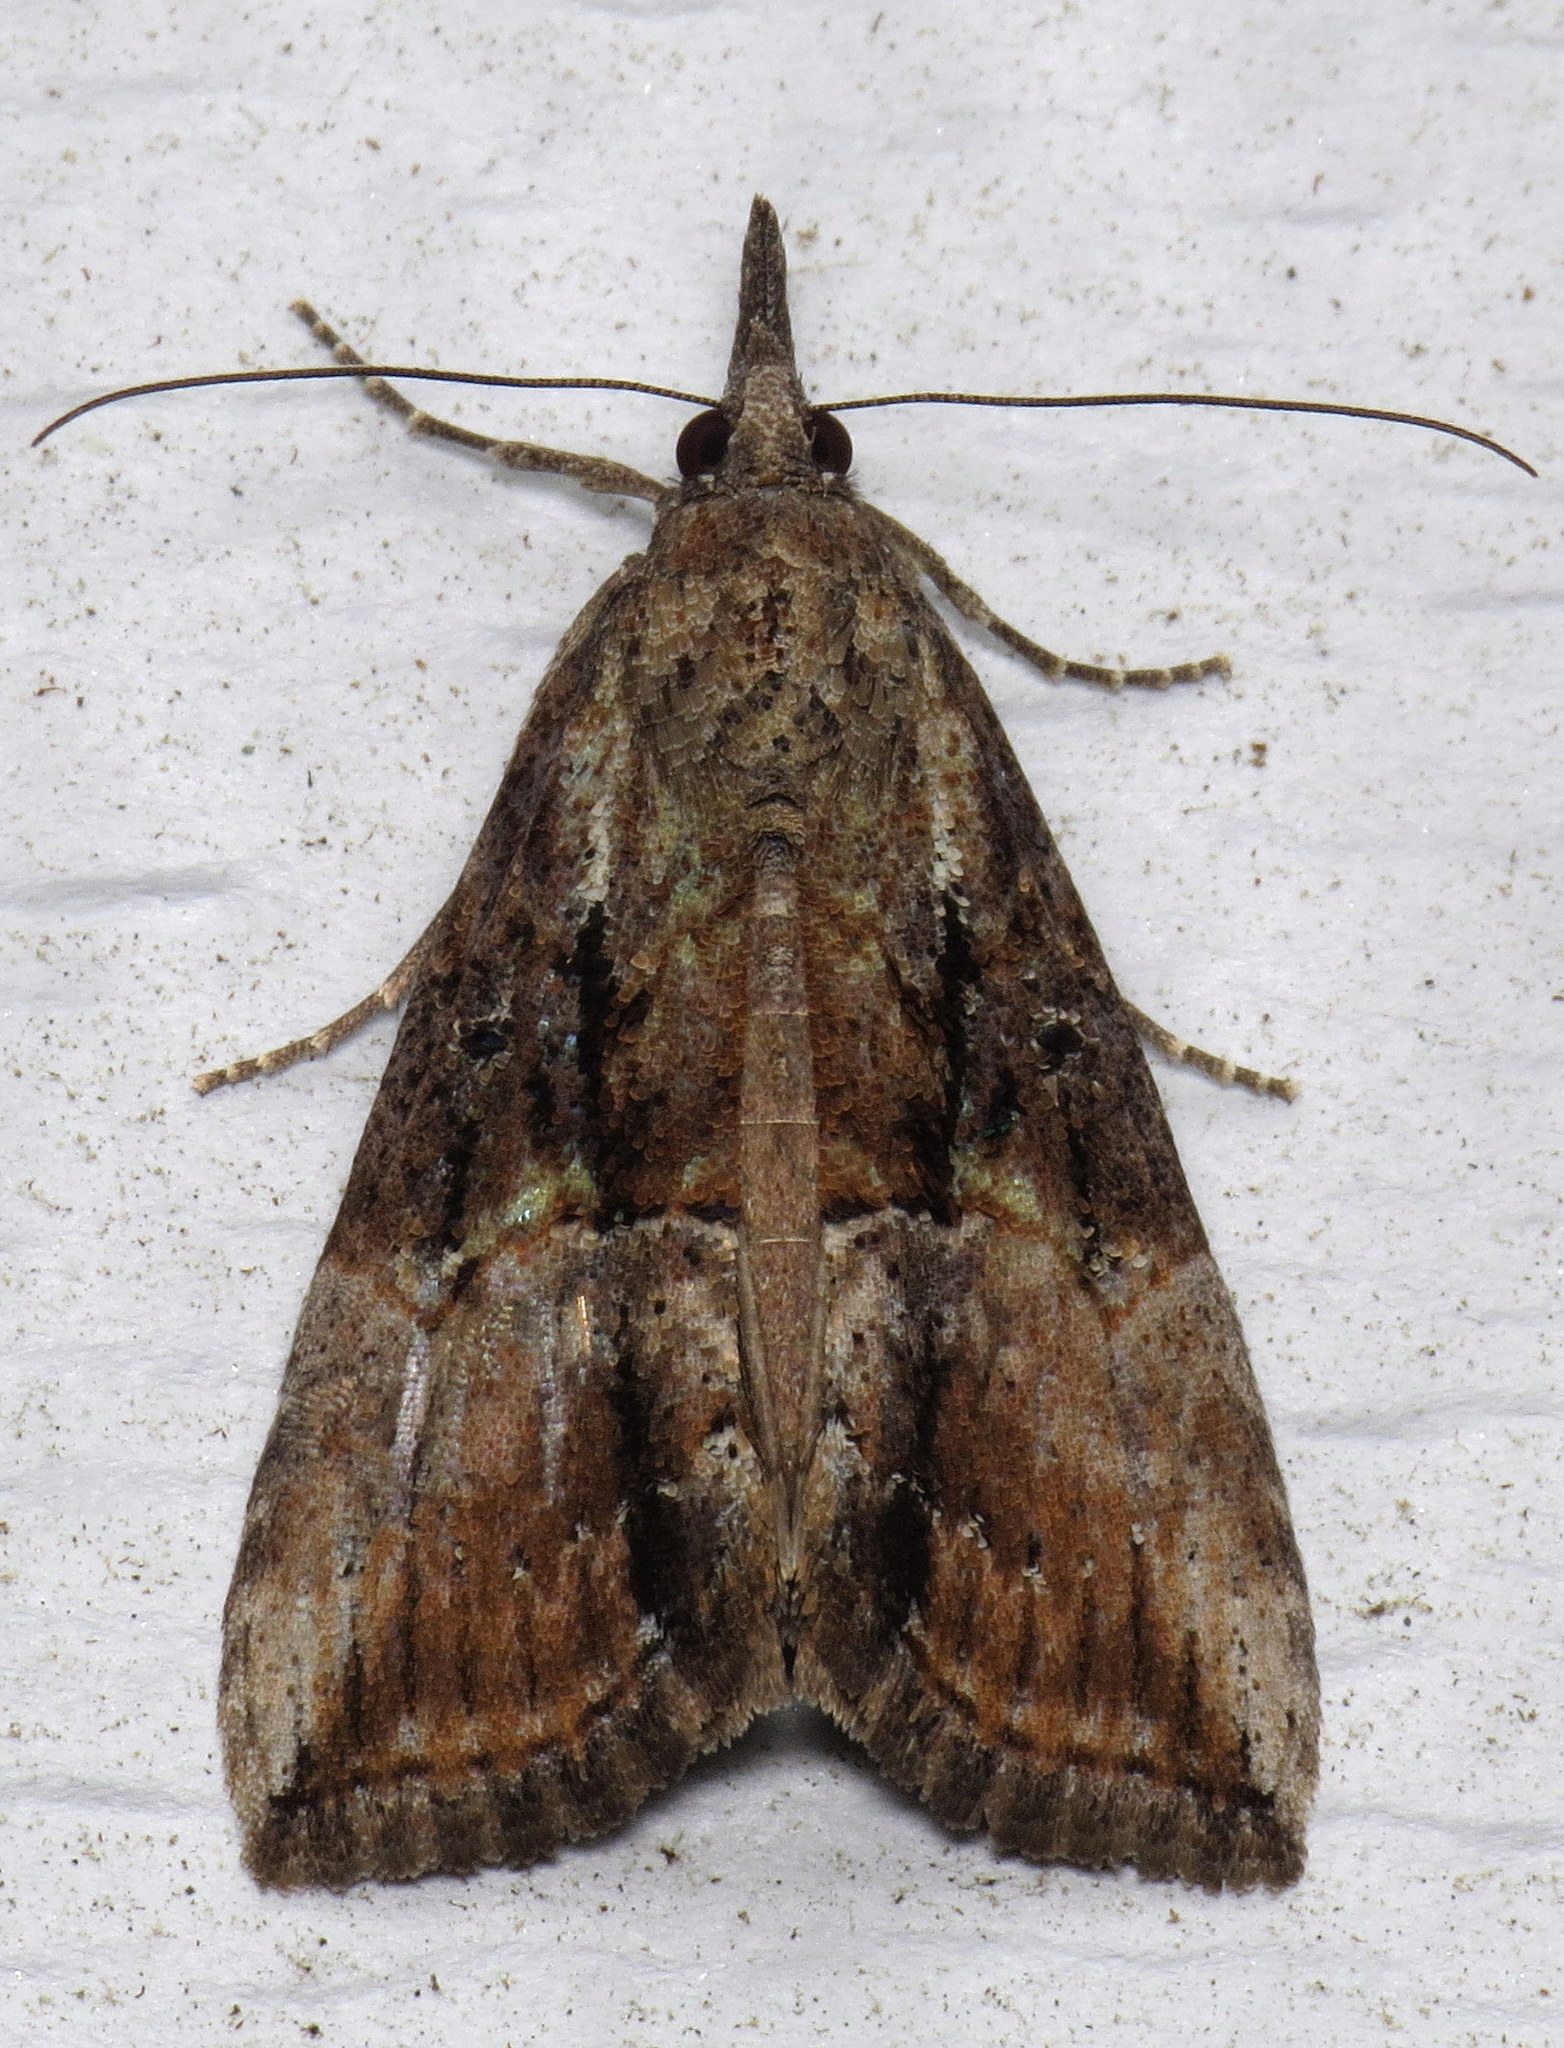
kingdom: Animalia
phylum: Arthropoda
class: Insecta
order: Lepidoptera
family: Erebidae
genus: Hypena
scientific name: Hypena scabra
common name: Green cloverworm
